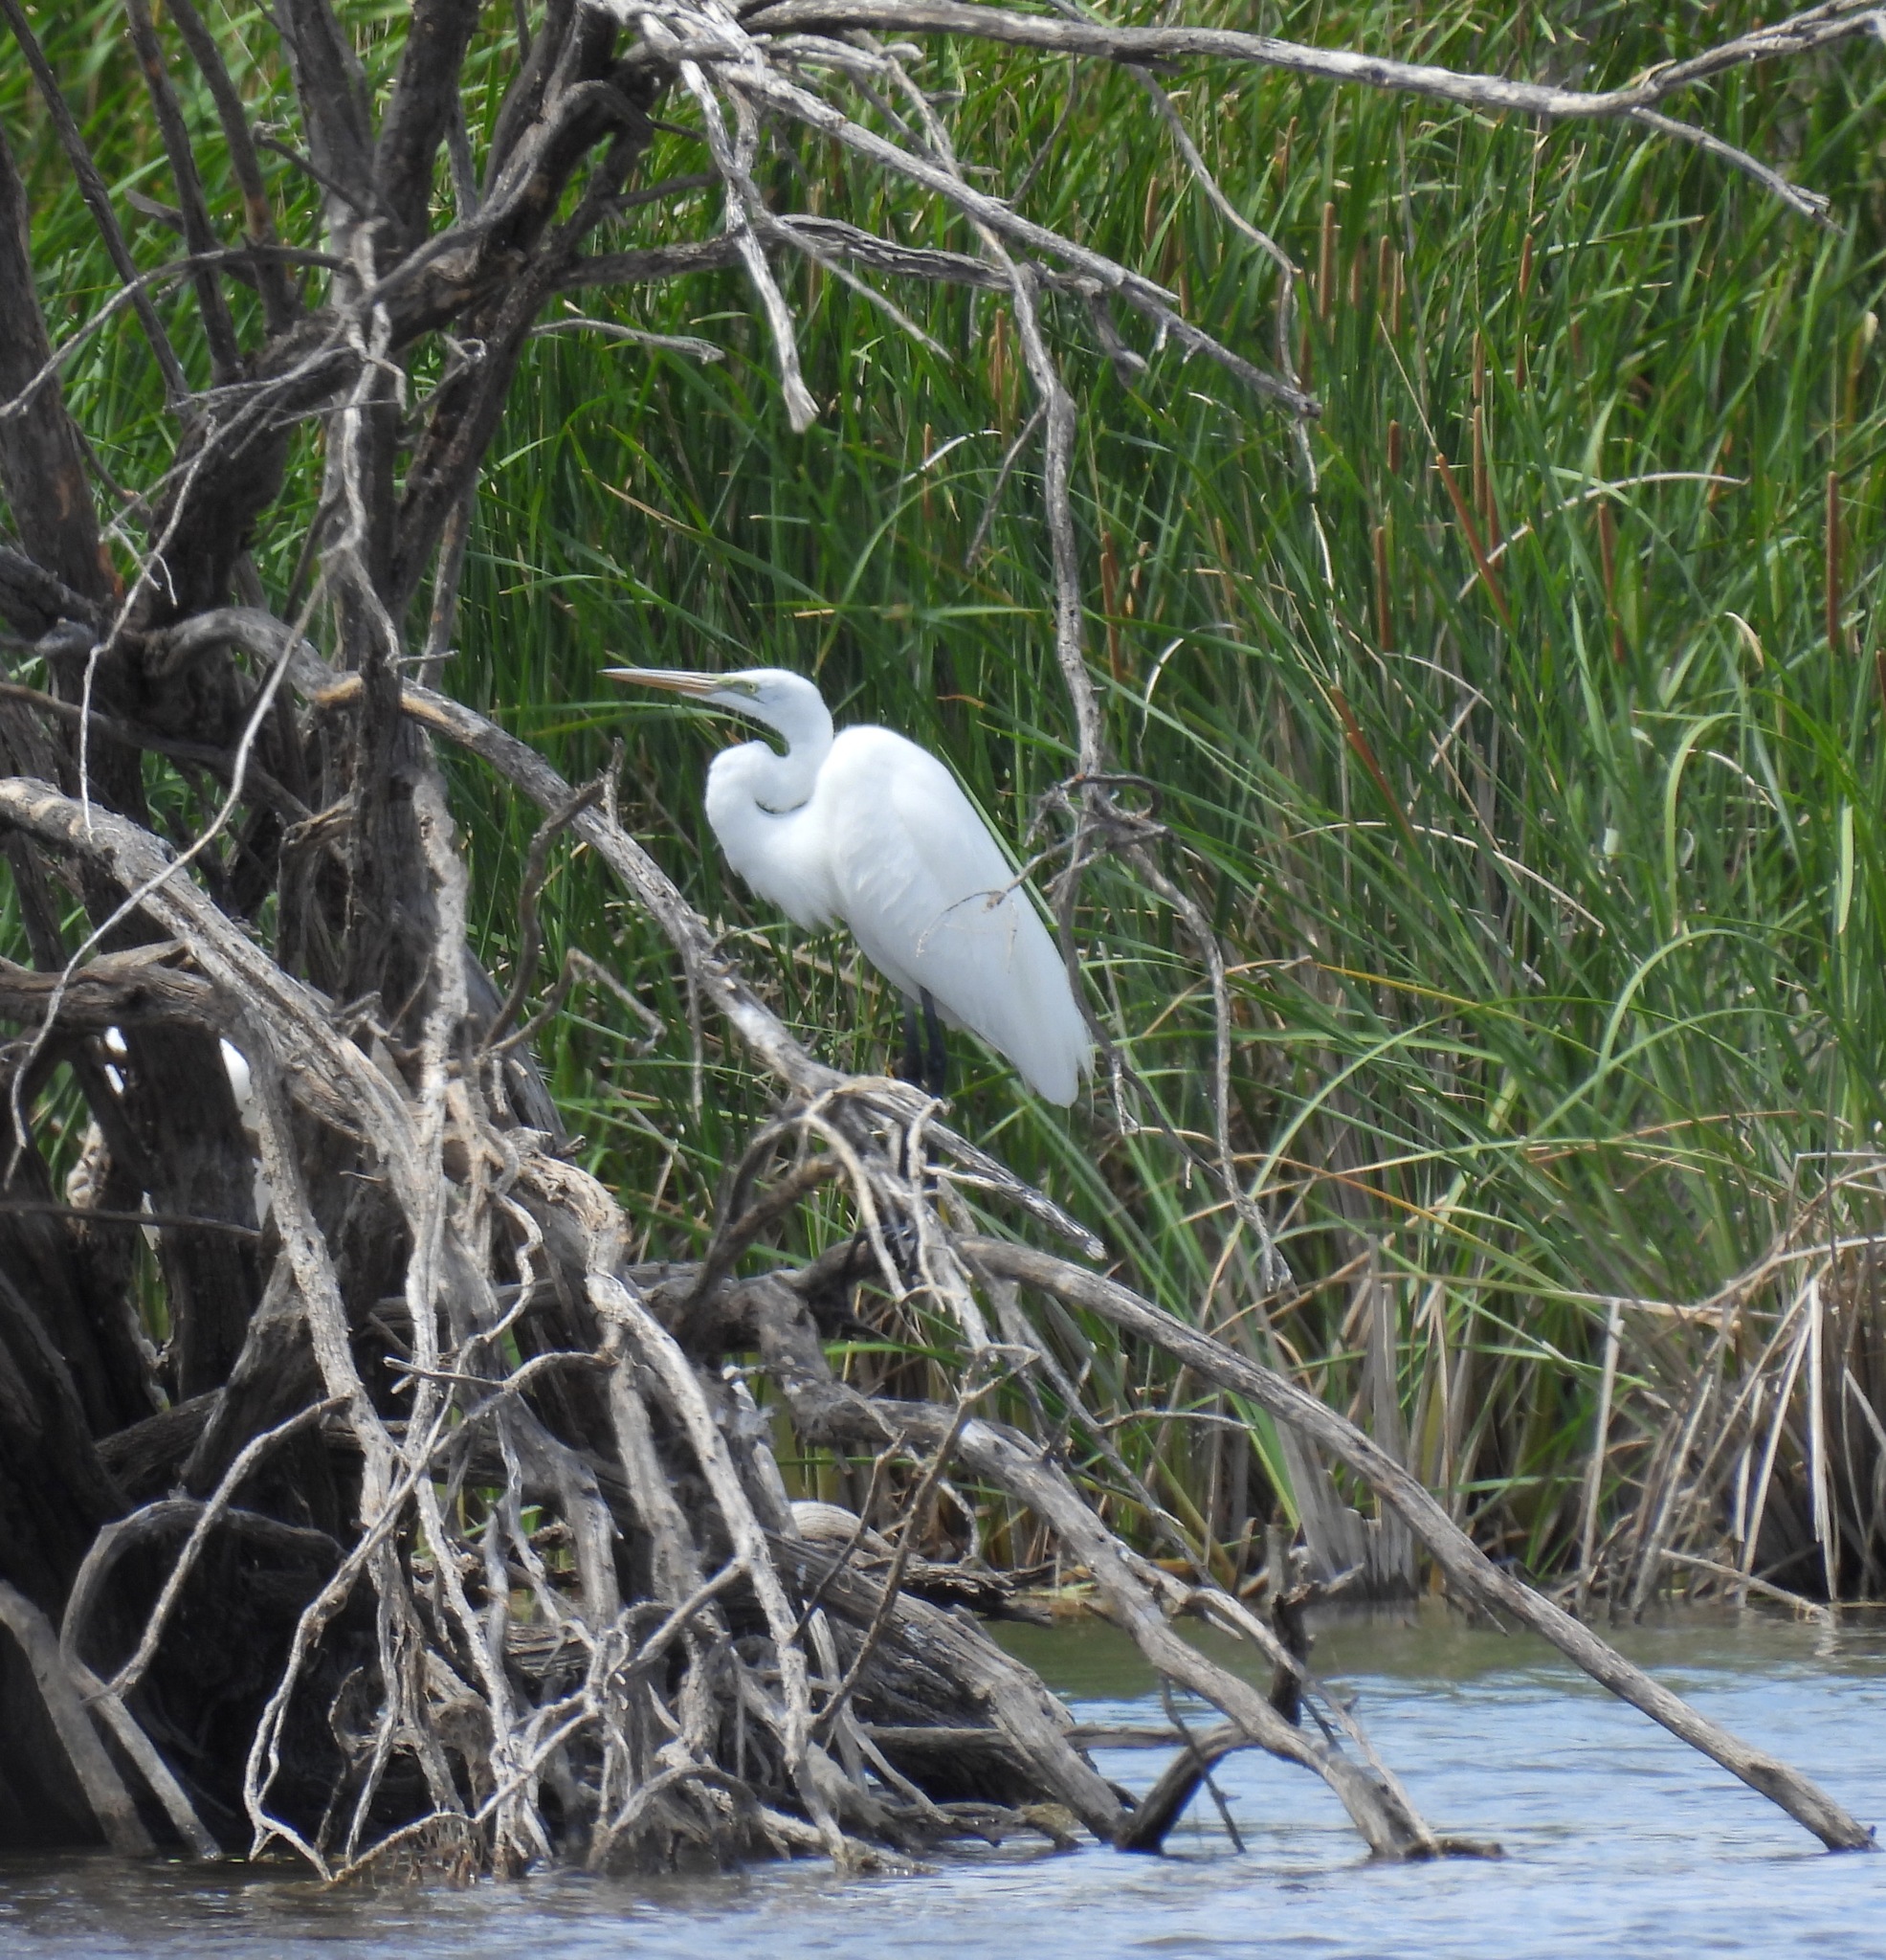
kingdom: Animalia
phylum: Chordata
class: Aves
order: Pelecaniformes
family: Ardeidae
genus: Ardea
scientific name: Ardea alba
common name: Great egret
